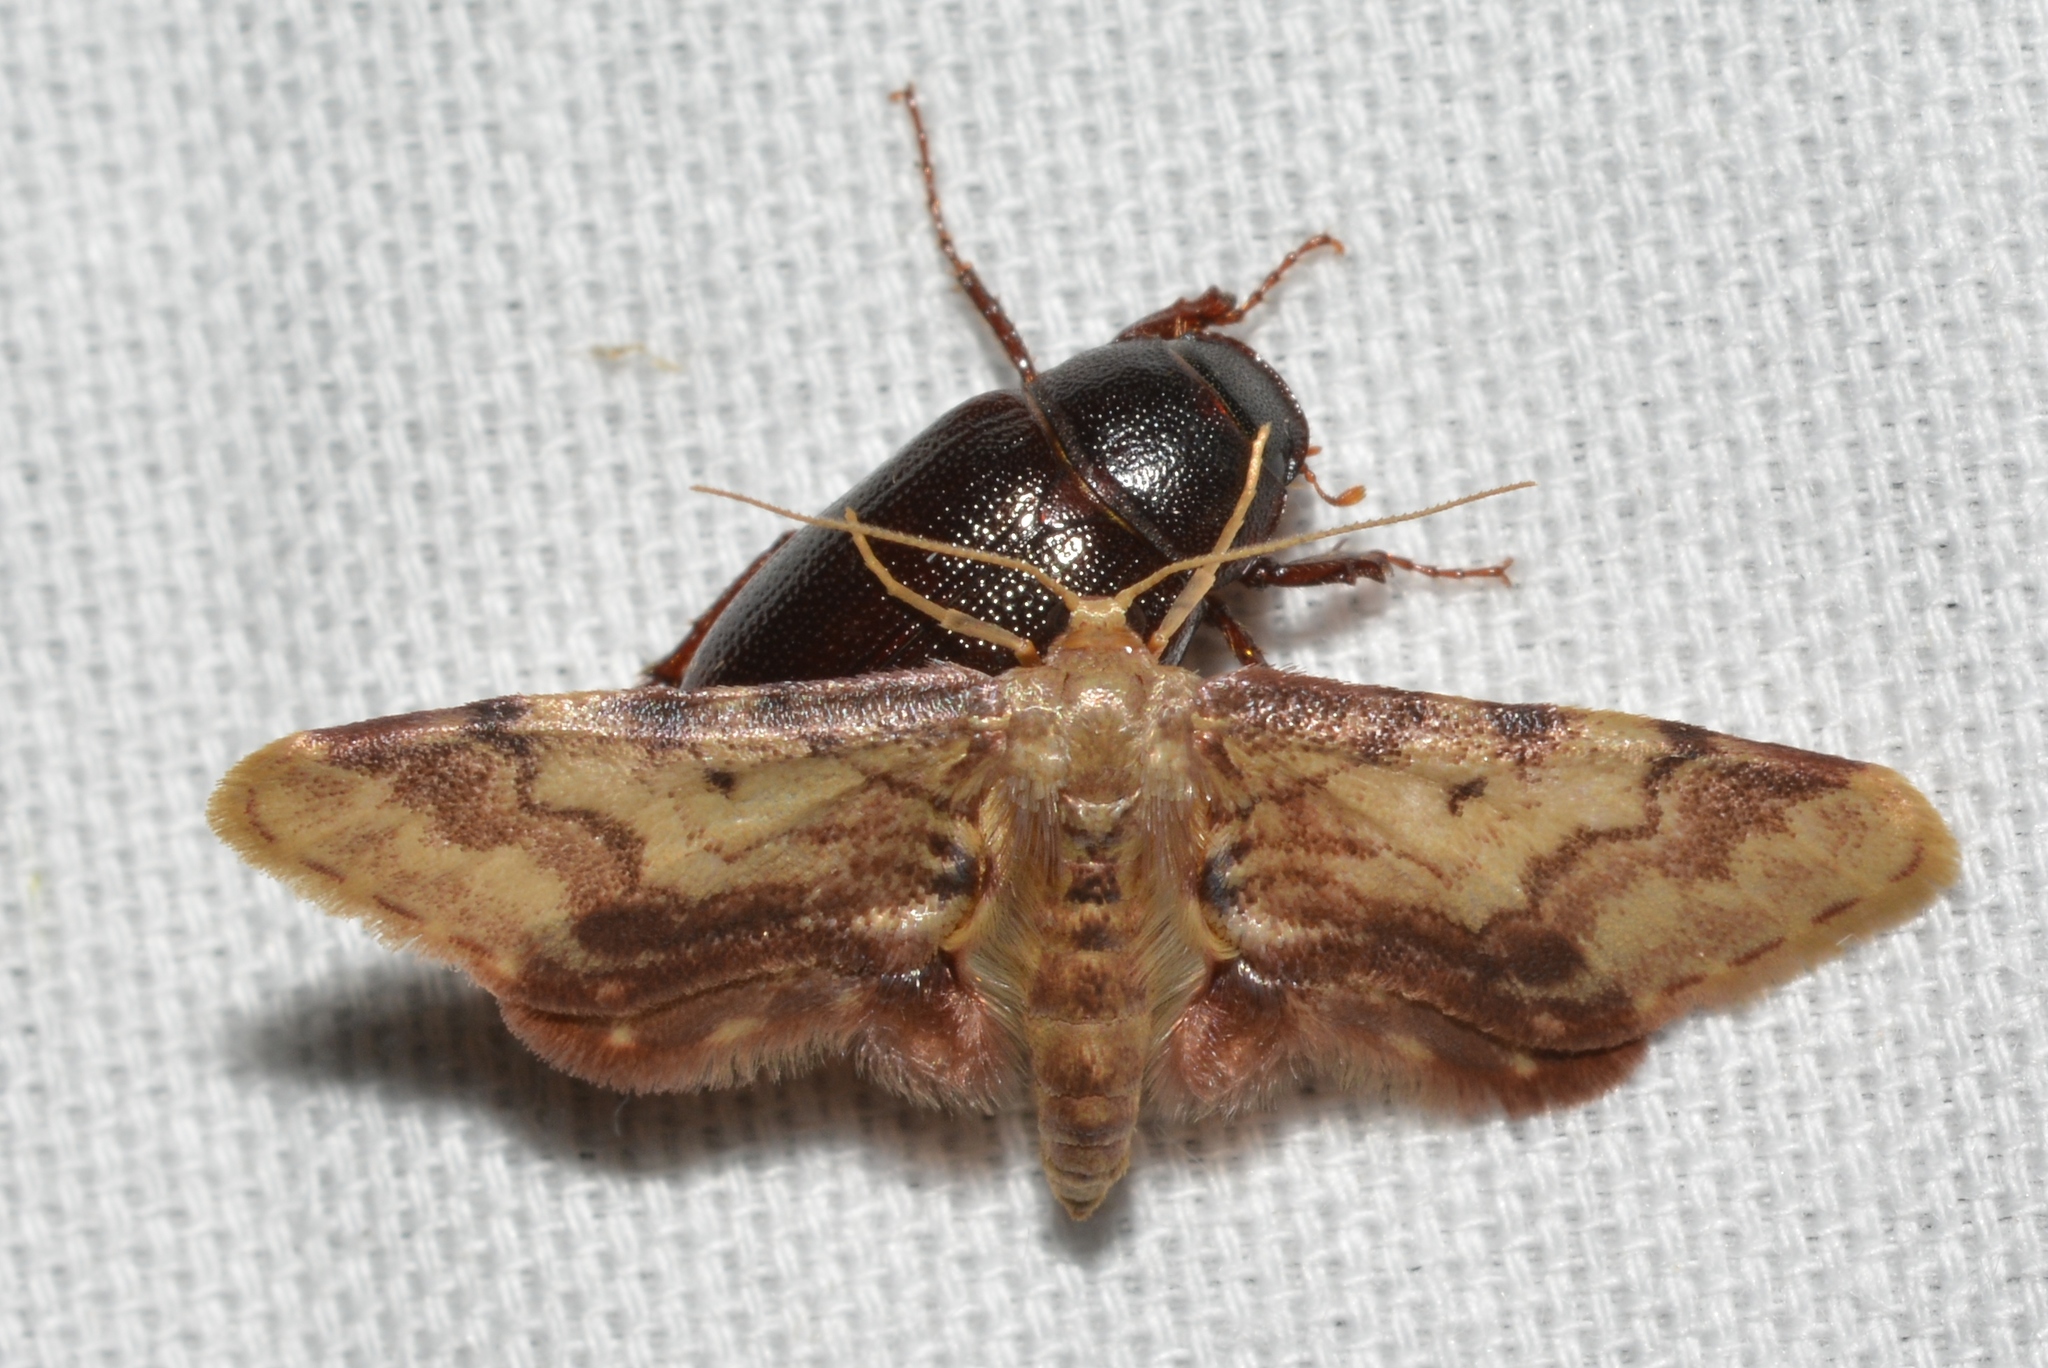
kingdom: Animalia
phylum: Arthropoda
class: Insecta
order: Lepidoptera
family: Geometridae
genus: Idaea
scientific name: Idaea furciferata
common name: Notch-winged wave
